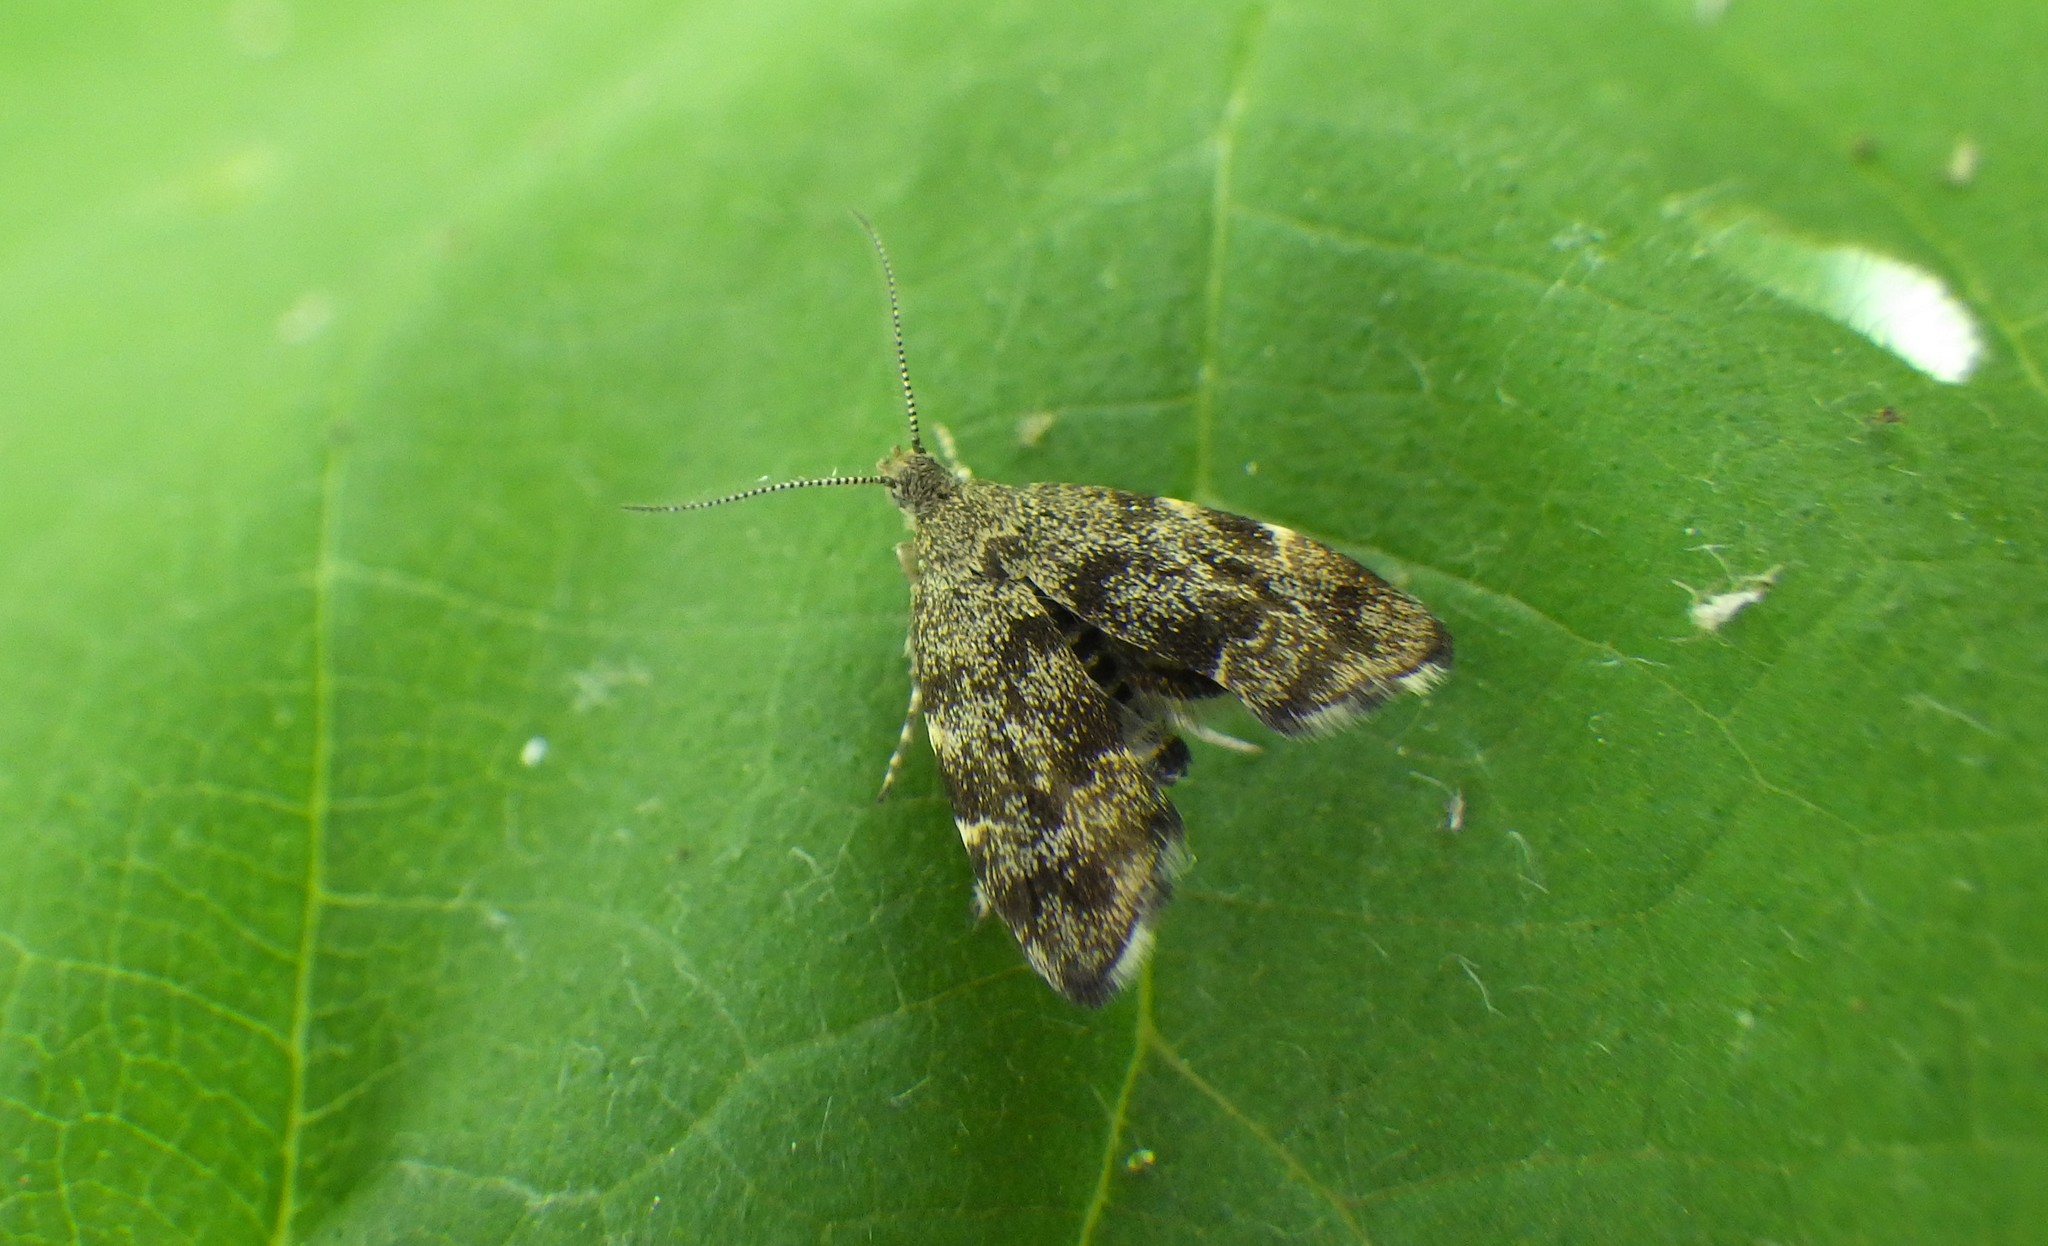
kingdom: Animalia
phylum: Arthropoda
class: Insecta
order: Lepidoptera
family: Choreutidae
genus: Anthophila
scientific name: Anthophila fabriciana
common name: Nettle-tap
